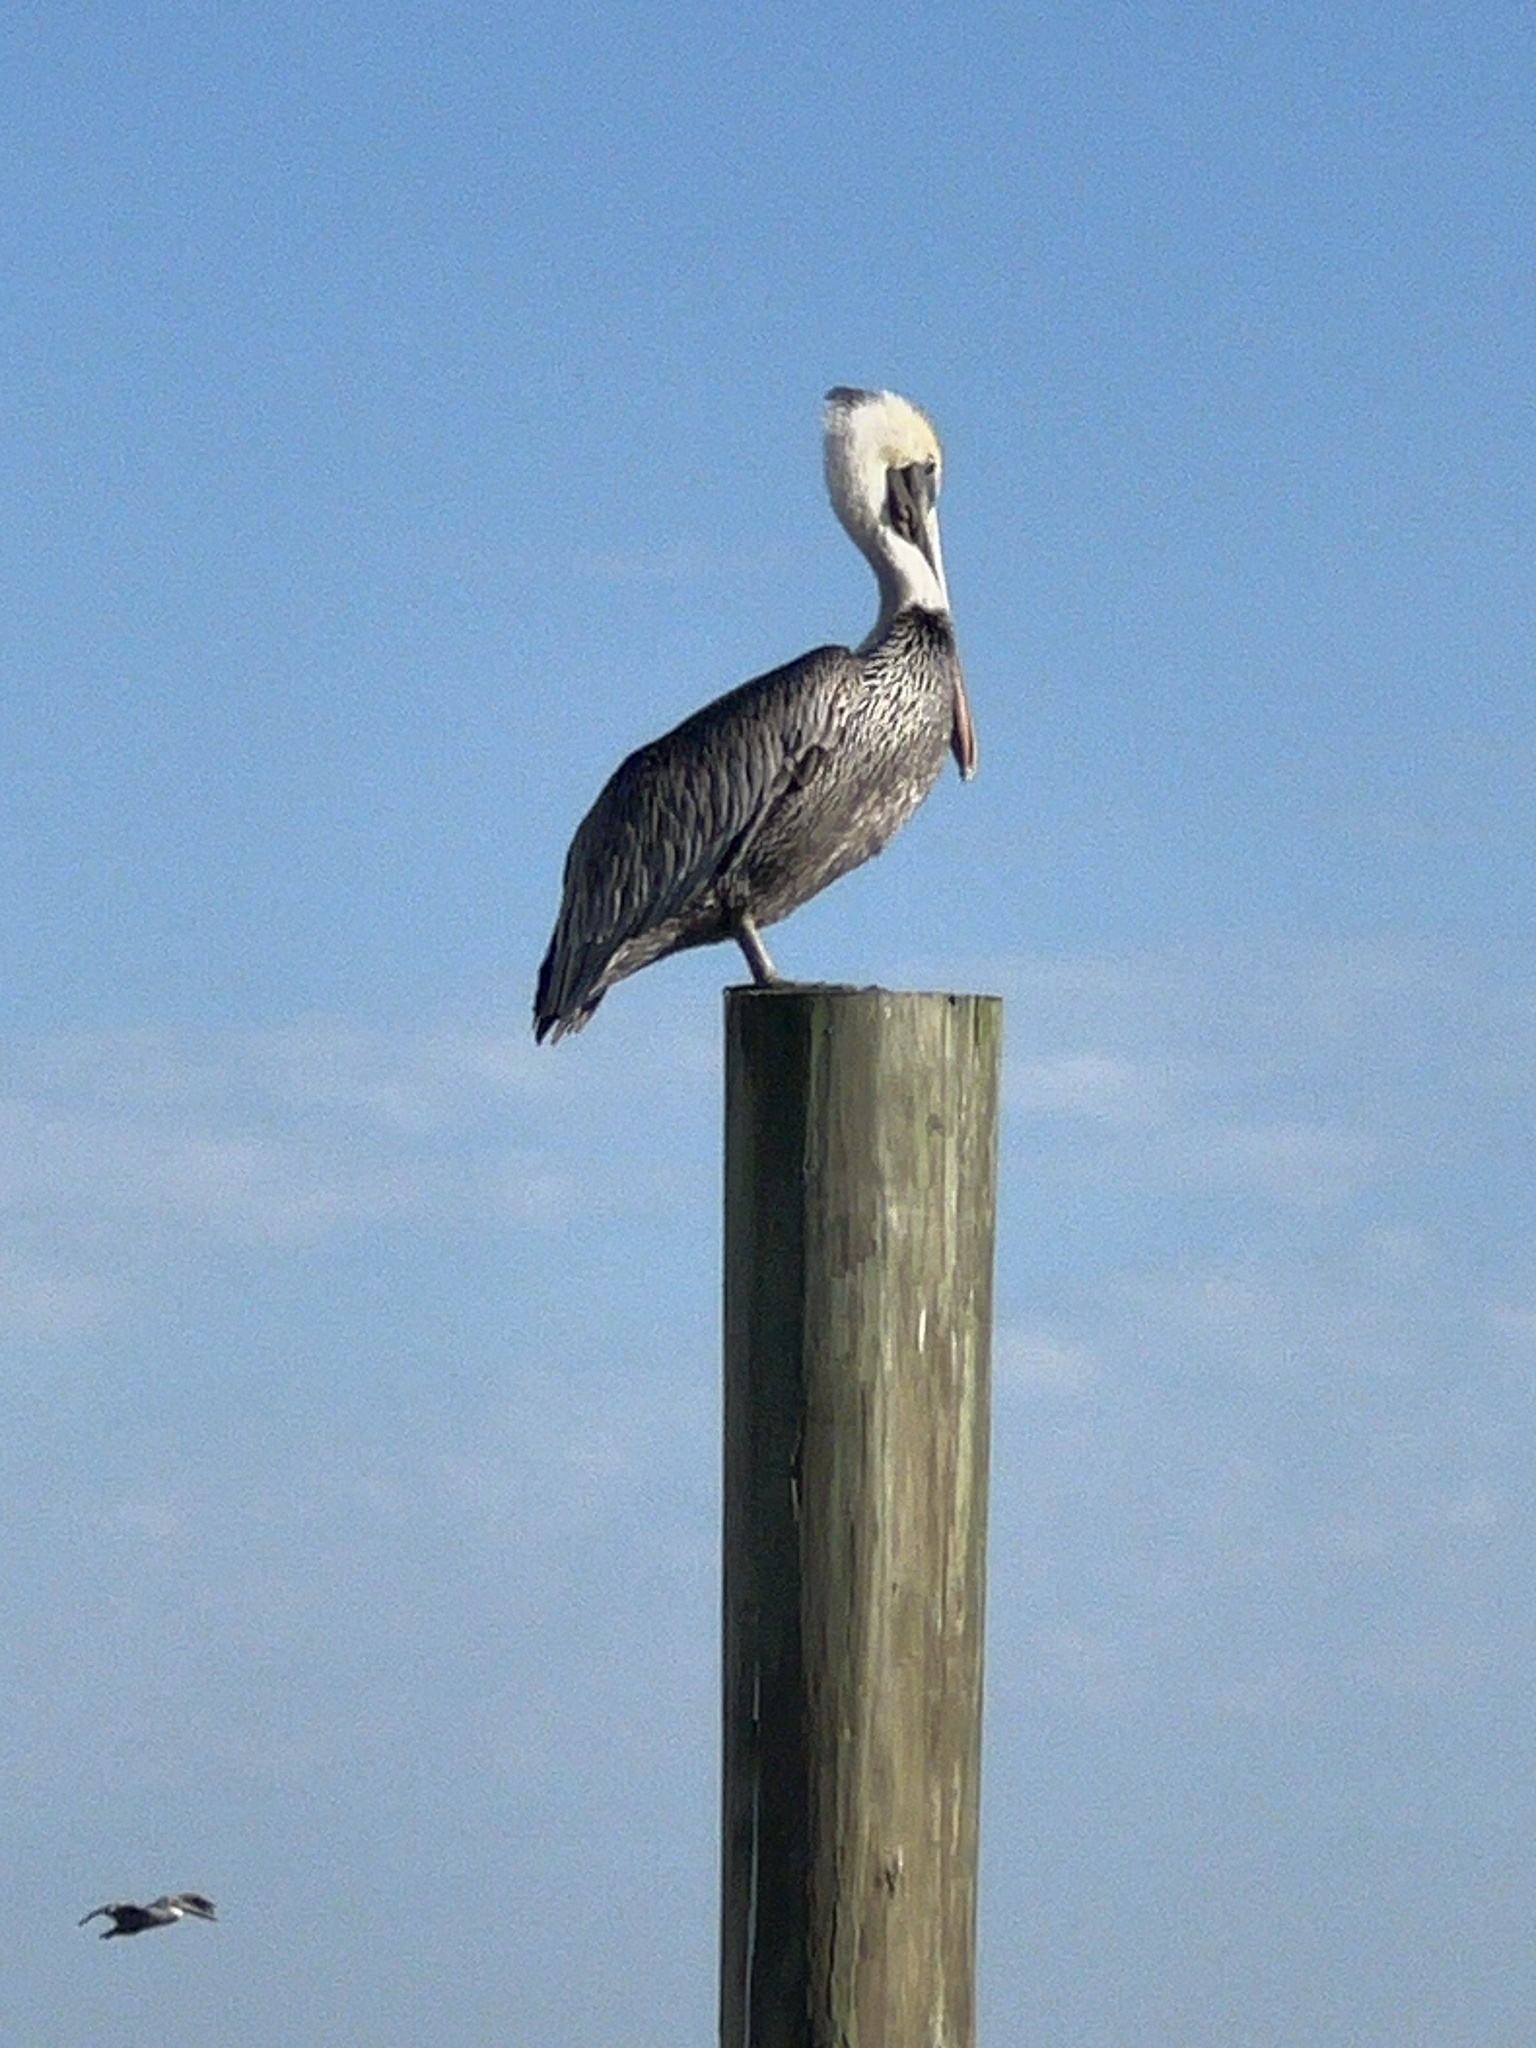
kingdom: Animalia
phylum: Chordata
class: Aves
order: Pelecaniformes
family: Pelecanidae
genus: Pelecanus
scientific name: Pelecanus occidentalis
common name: Brown pelican
